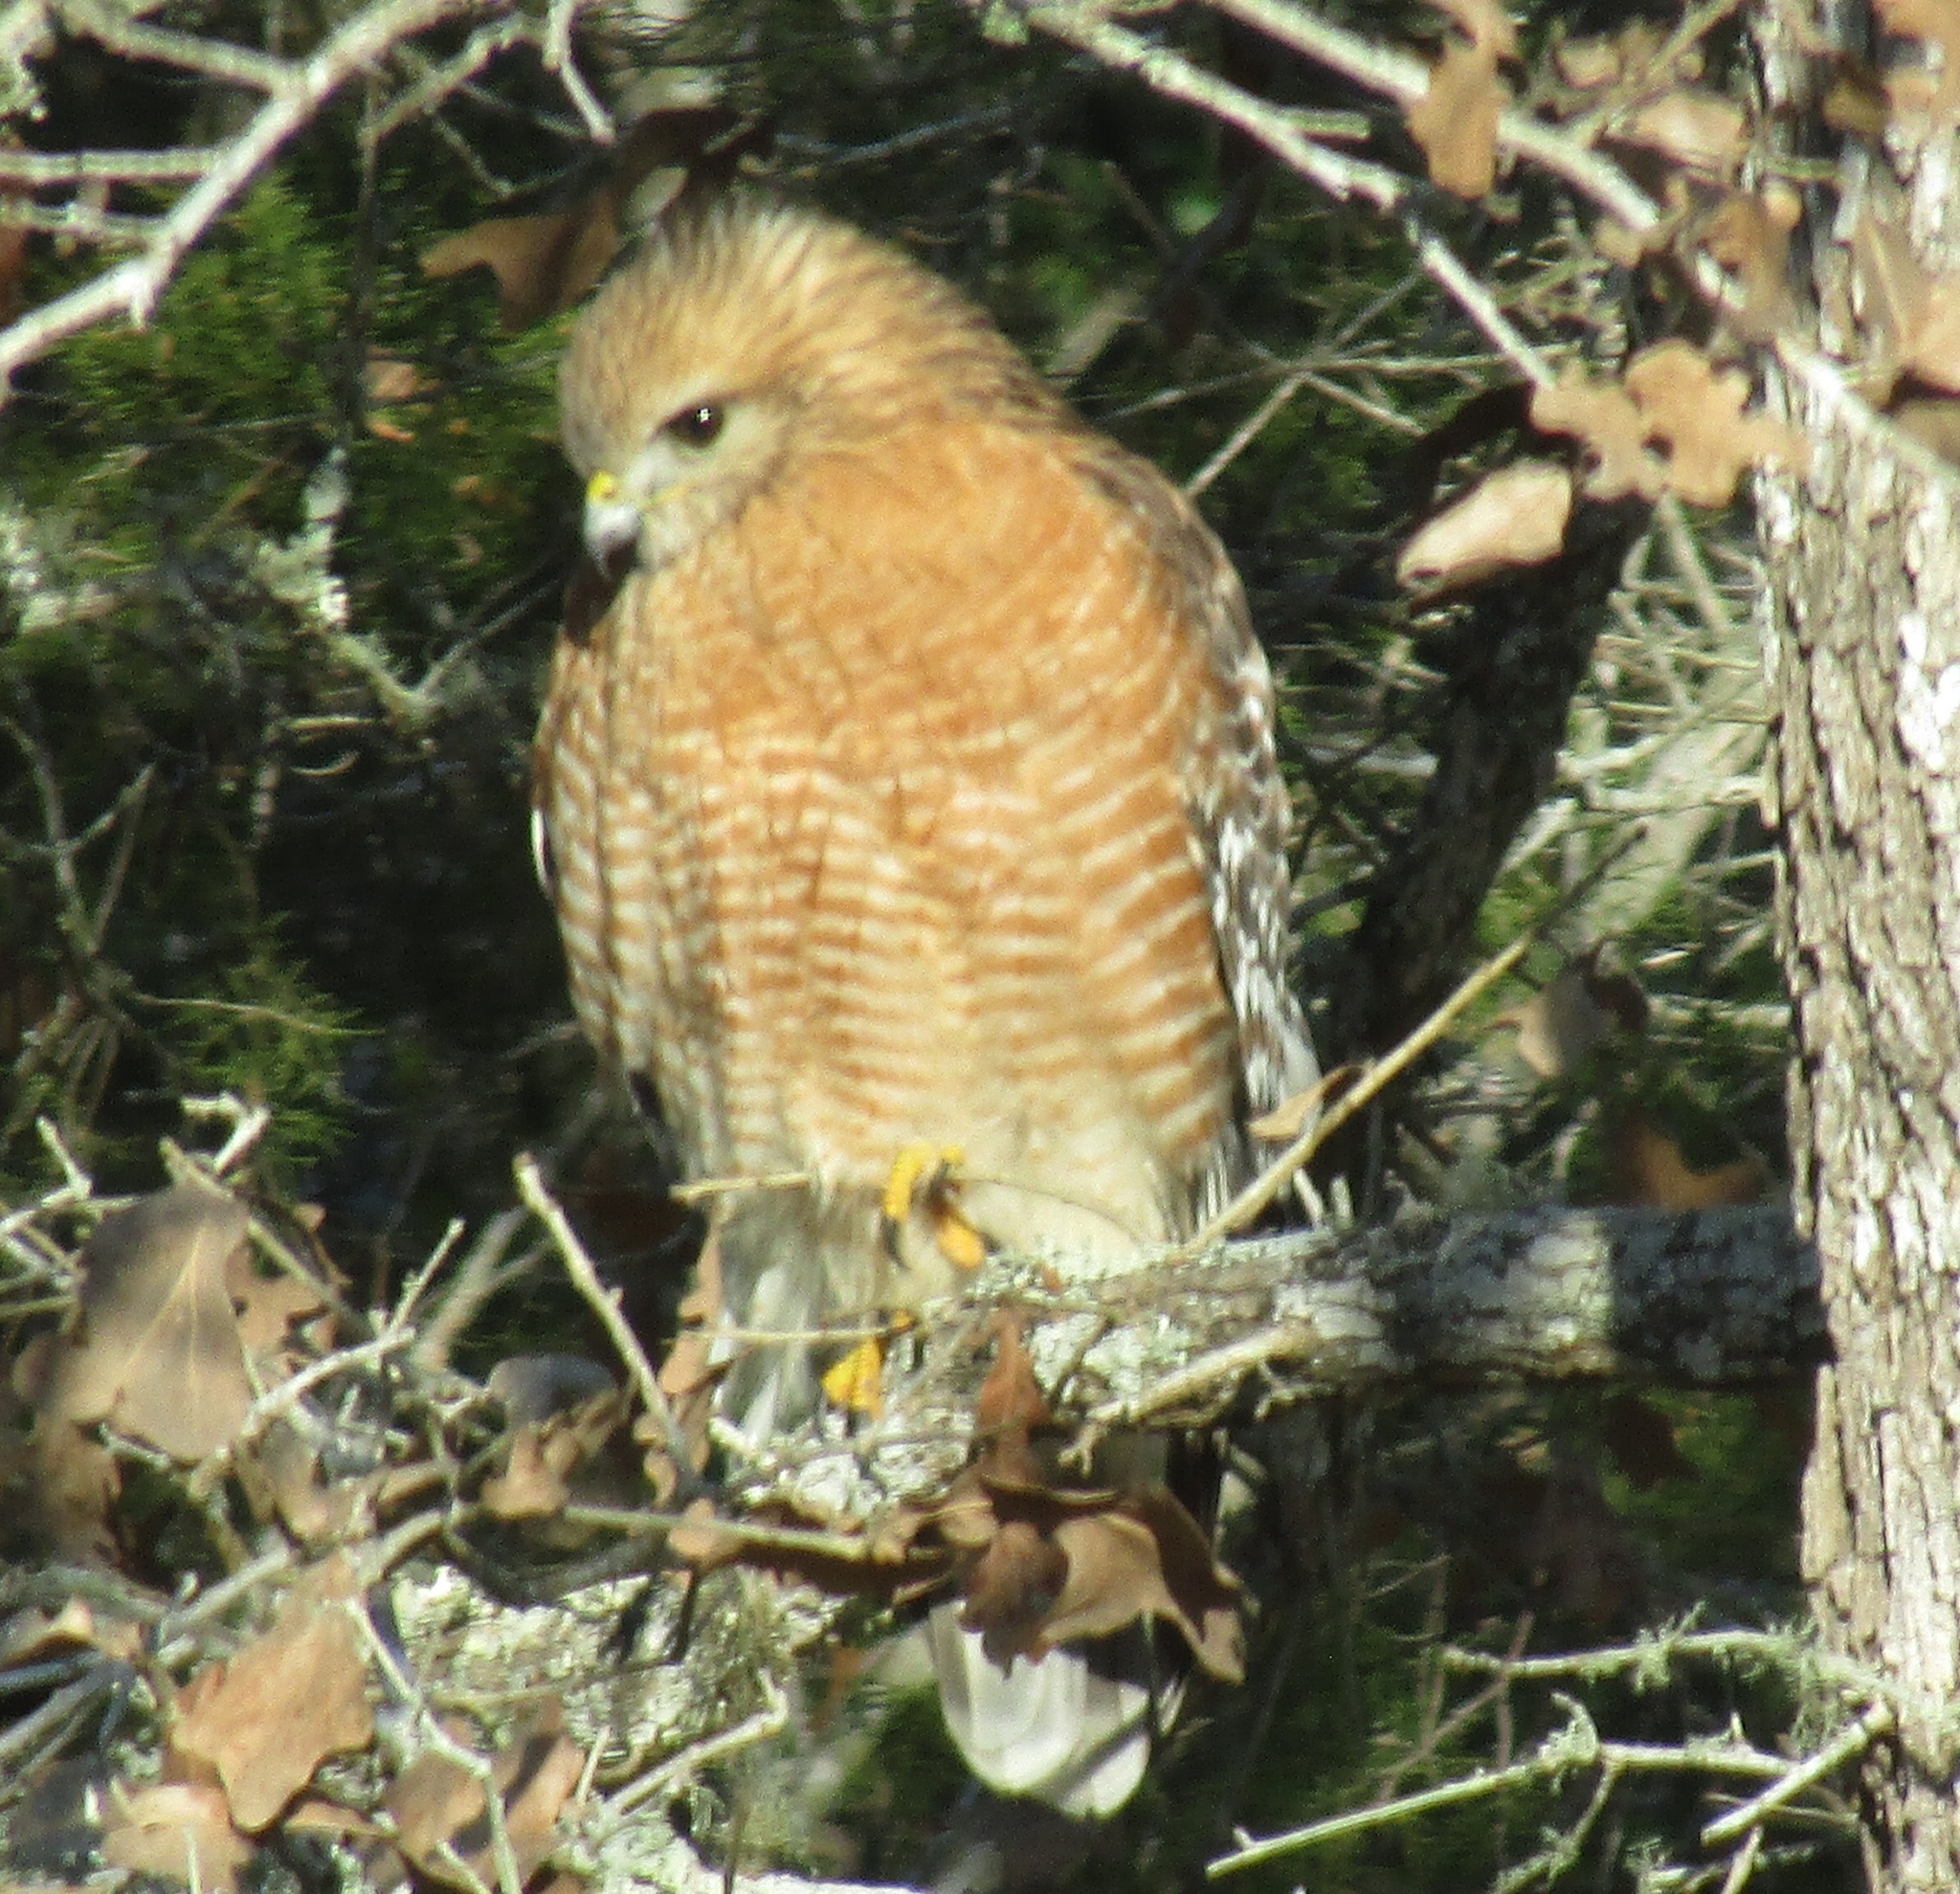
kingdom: Animalia
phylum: Chordata
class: Aves
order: Accipitriformes
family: Accipitridae
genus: Buteo
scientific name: Buteo lineatus
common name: Red-shouldered hawk
